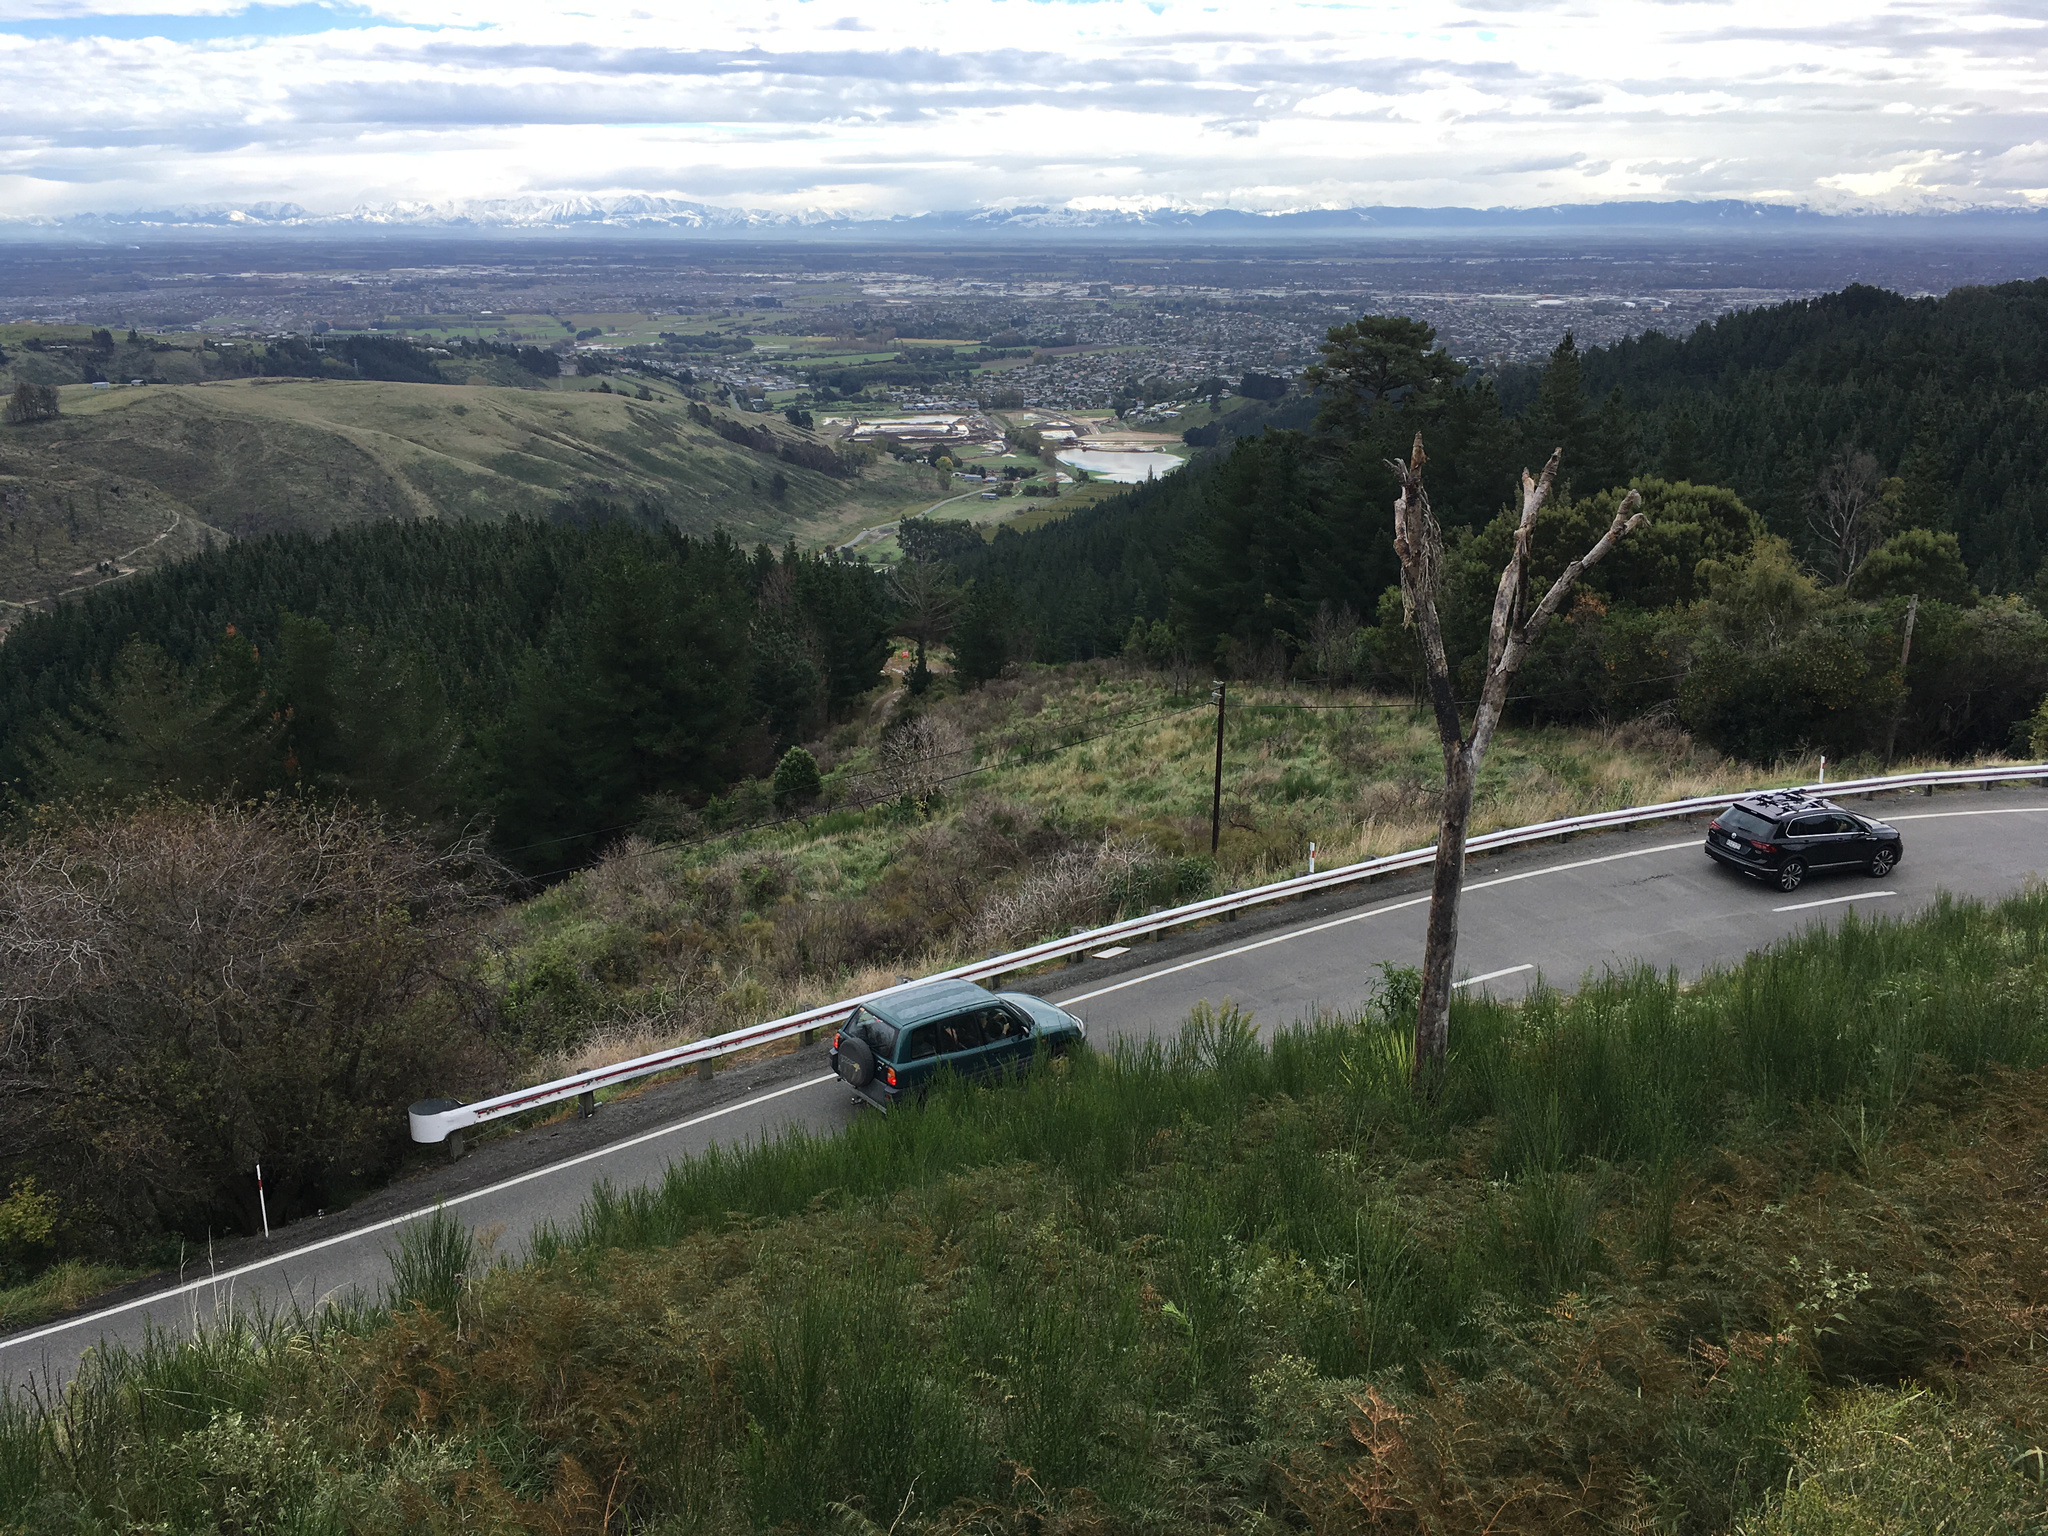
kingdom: Plantae
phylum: Tracheophyta
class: Magnoliopsida
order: Fabales
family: Fabaceae
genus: Cytisus
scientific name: Cytisus scoparius
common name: Scotch broom
